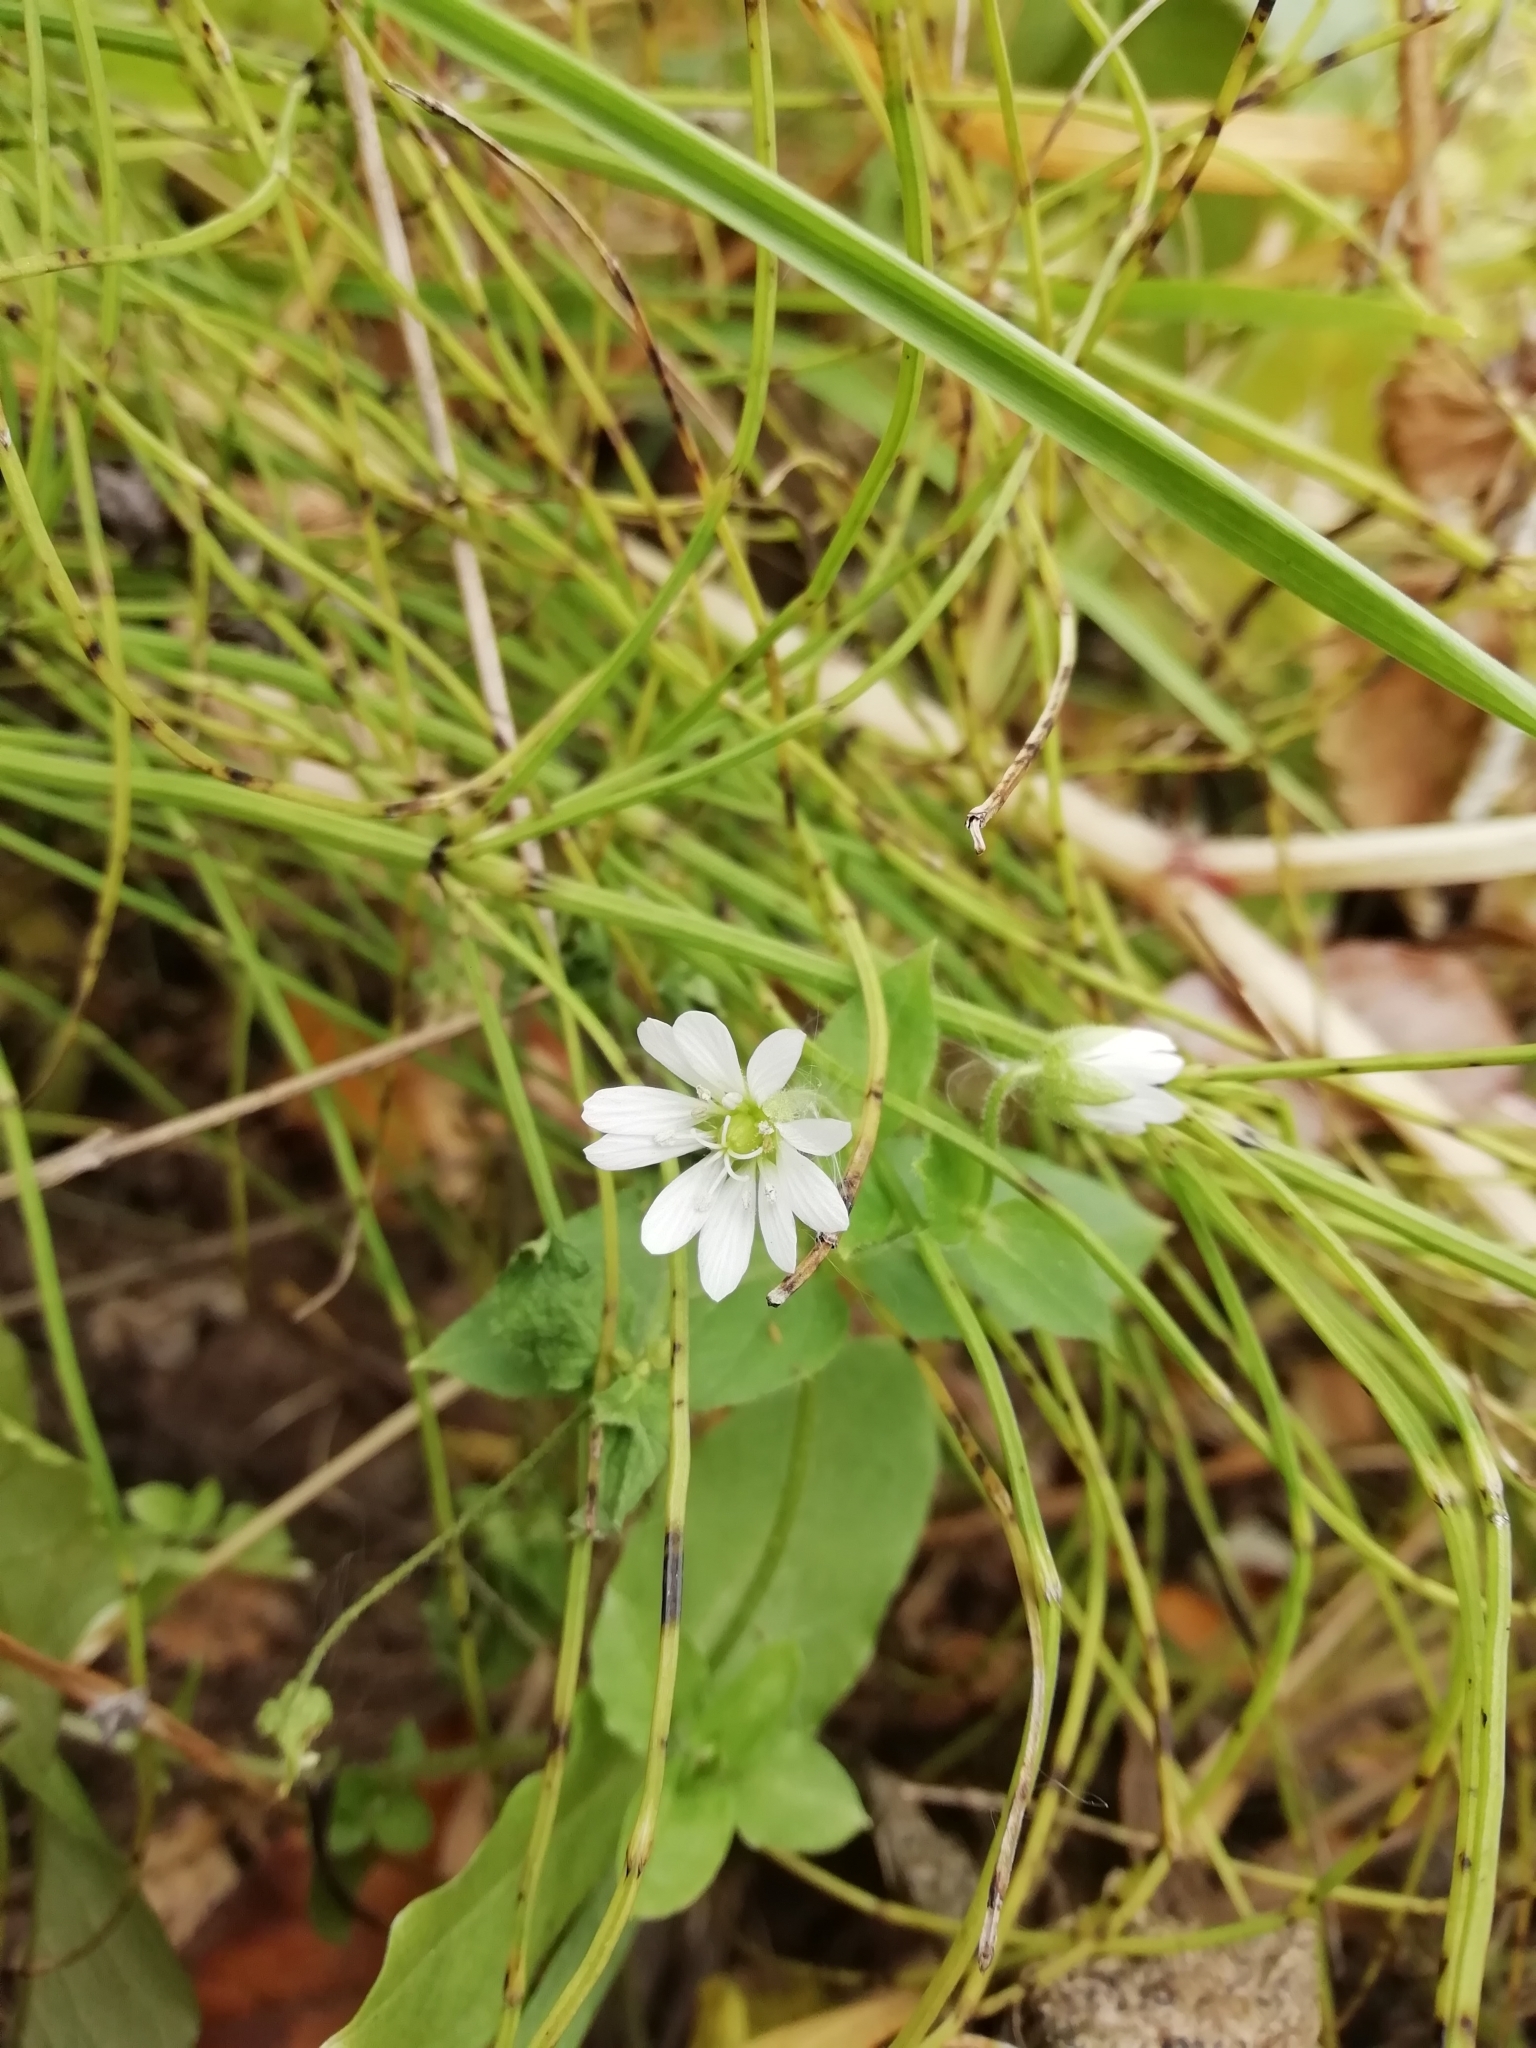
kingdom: Plantae
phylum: Tracheophyta
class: Magnoliopsida
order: Caryophyllales
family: Caryophyllaceae
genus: Stellaria
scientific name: Stellaria aquatica
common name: Water chickweed
